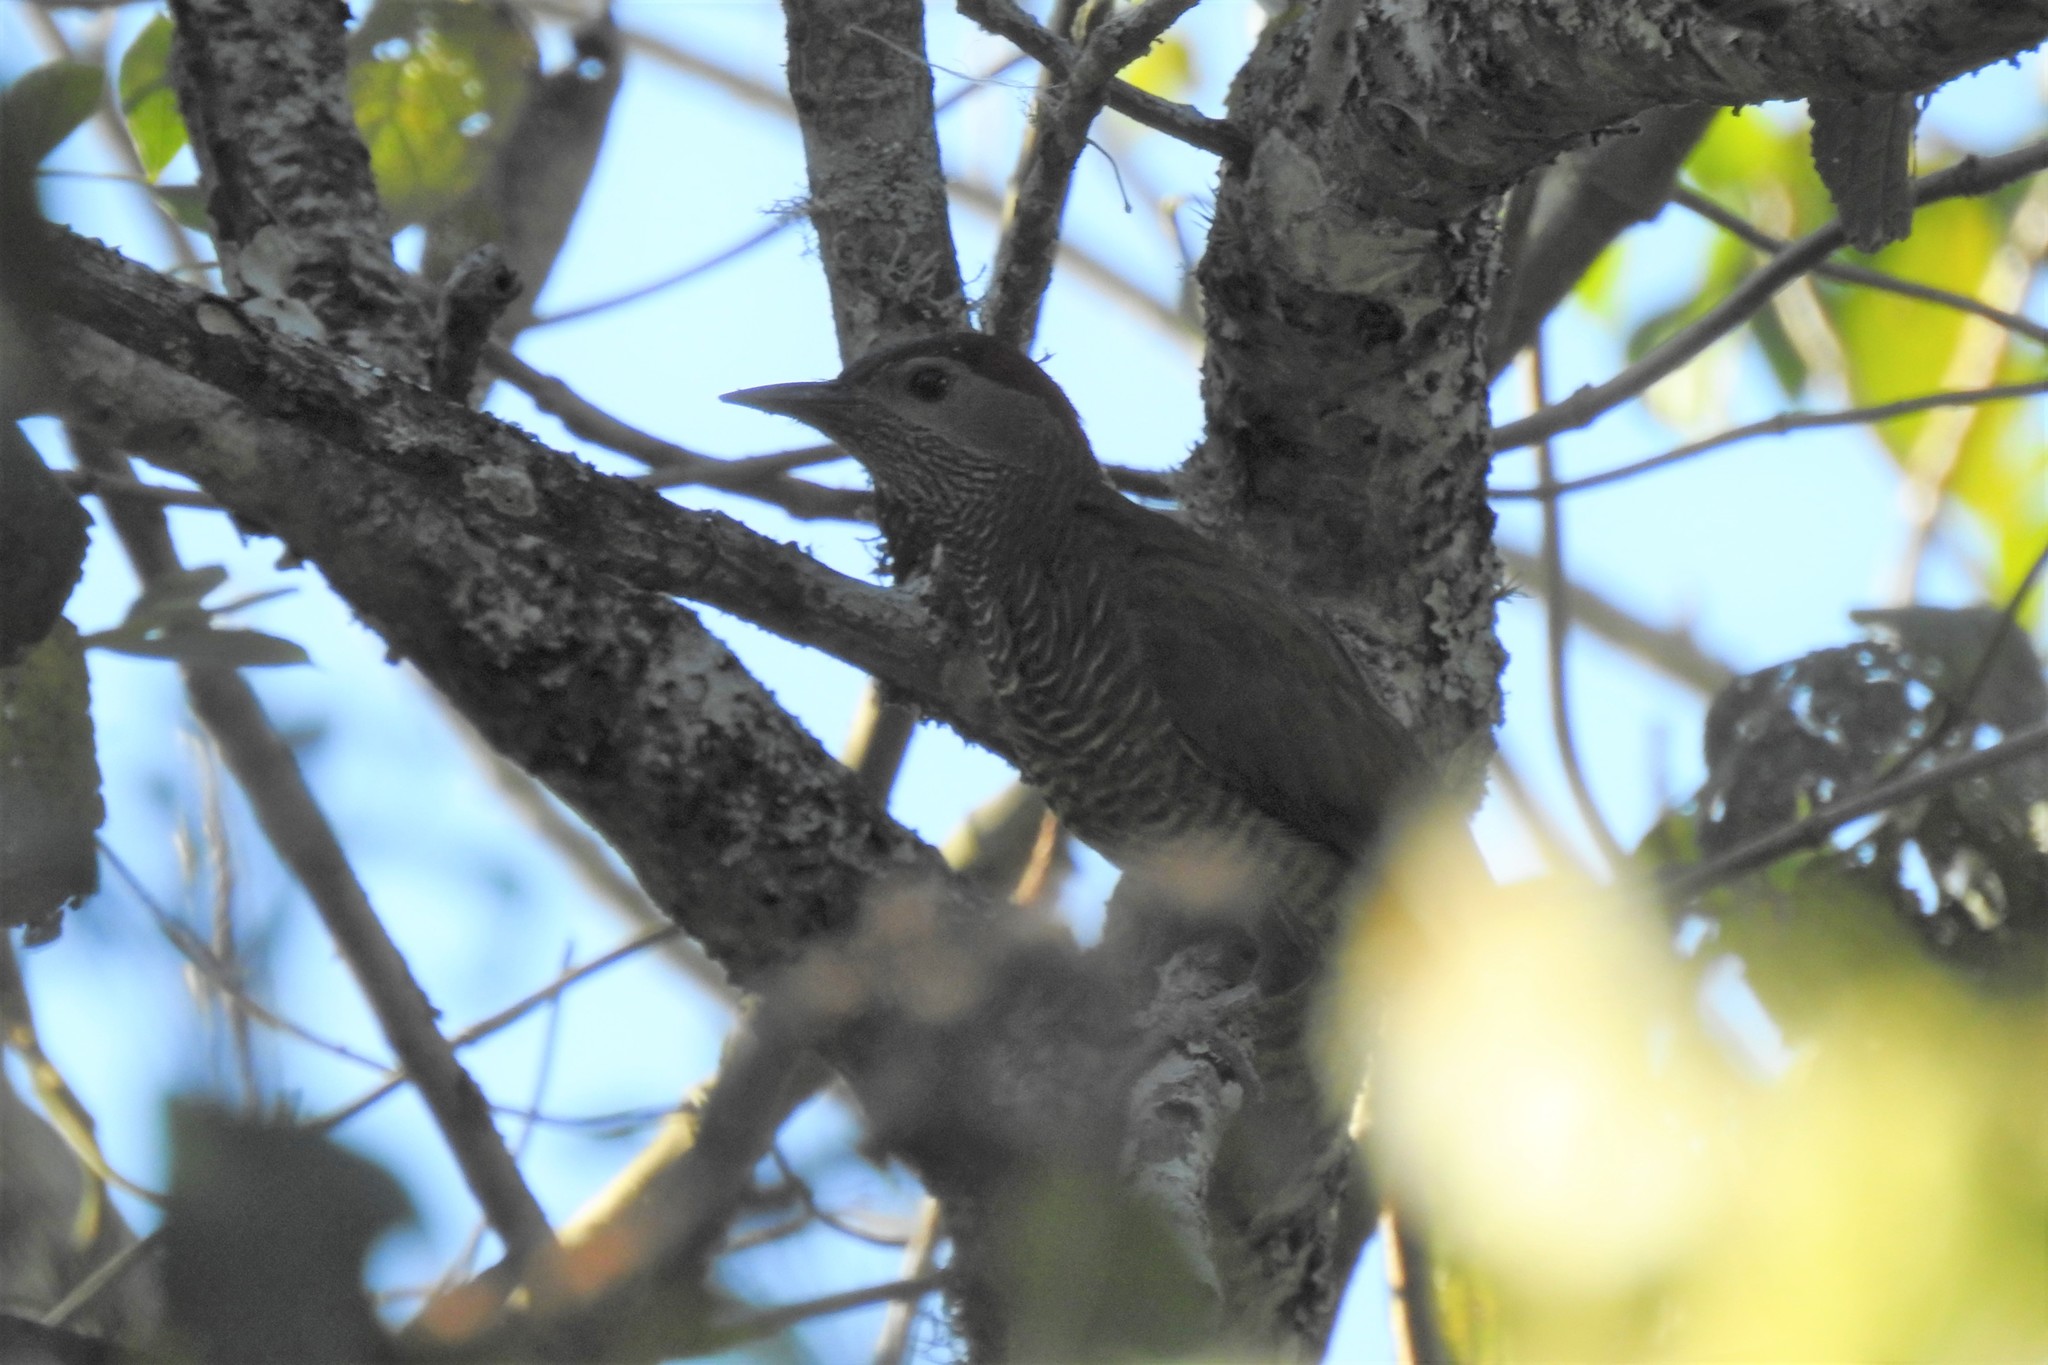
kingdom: Animalia
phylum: Chordata
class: Aves
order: Piciformes
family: Picidae
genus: Colaptes
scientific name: Colaptes rubiginosus
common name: Golden-olive woodpecker
